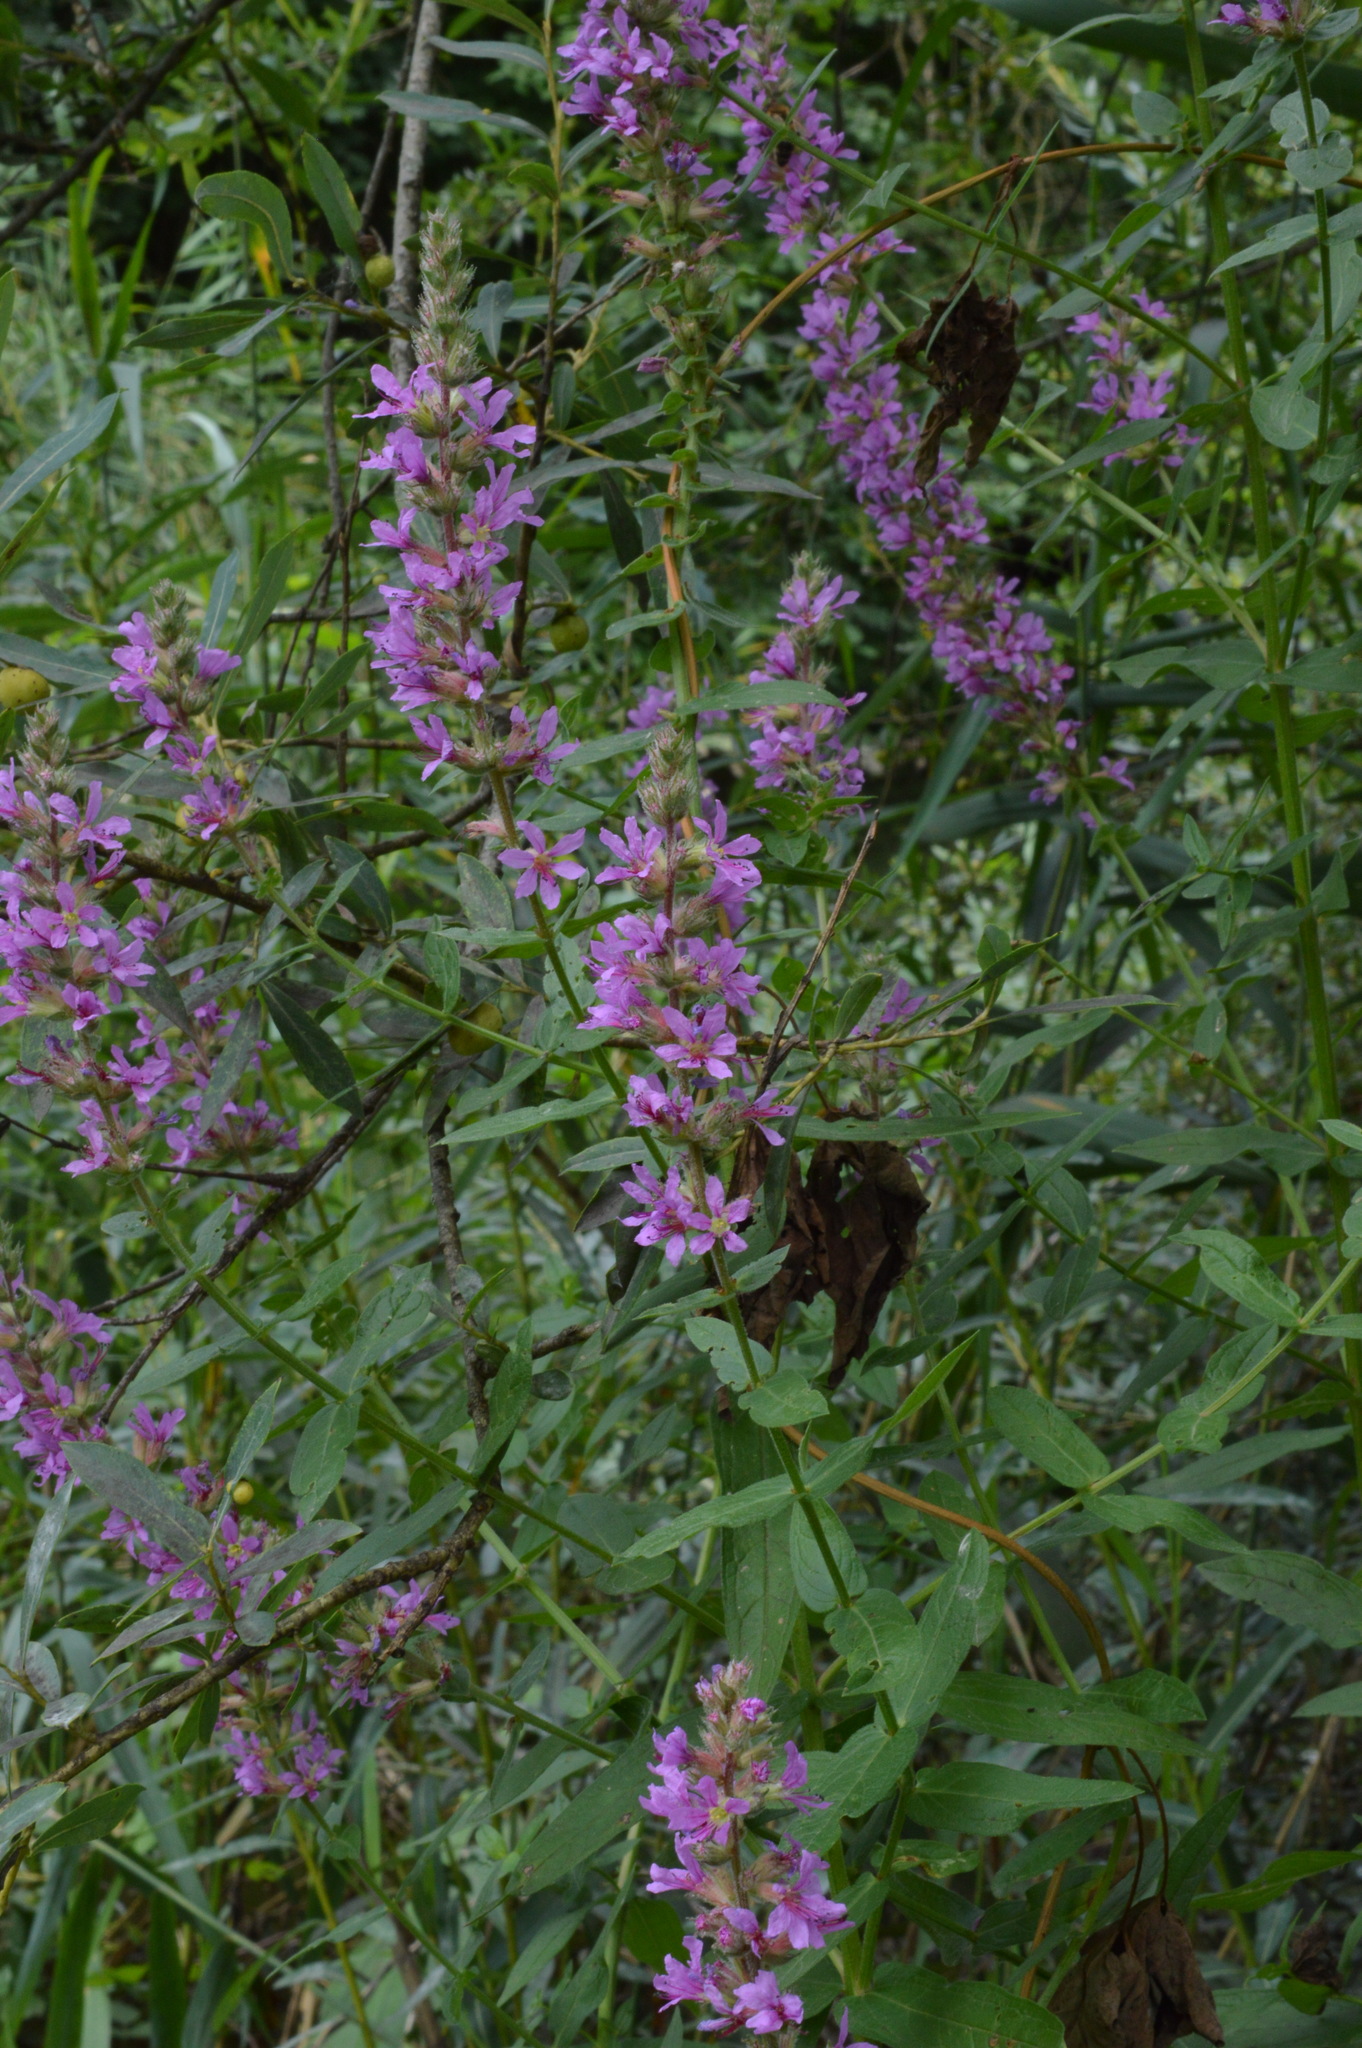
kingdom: Plantae
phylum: Tracheophyta
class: Magnoliopsida
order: Myrtales
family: Lythraceae
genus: Lythrum
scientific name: Lythrum salicaria
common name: Purple loosestrife
